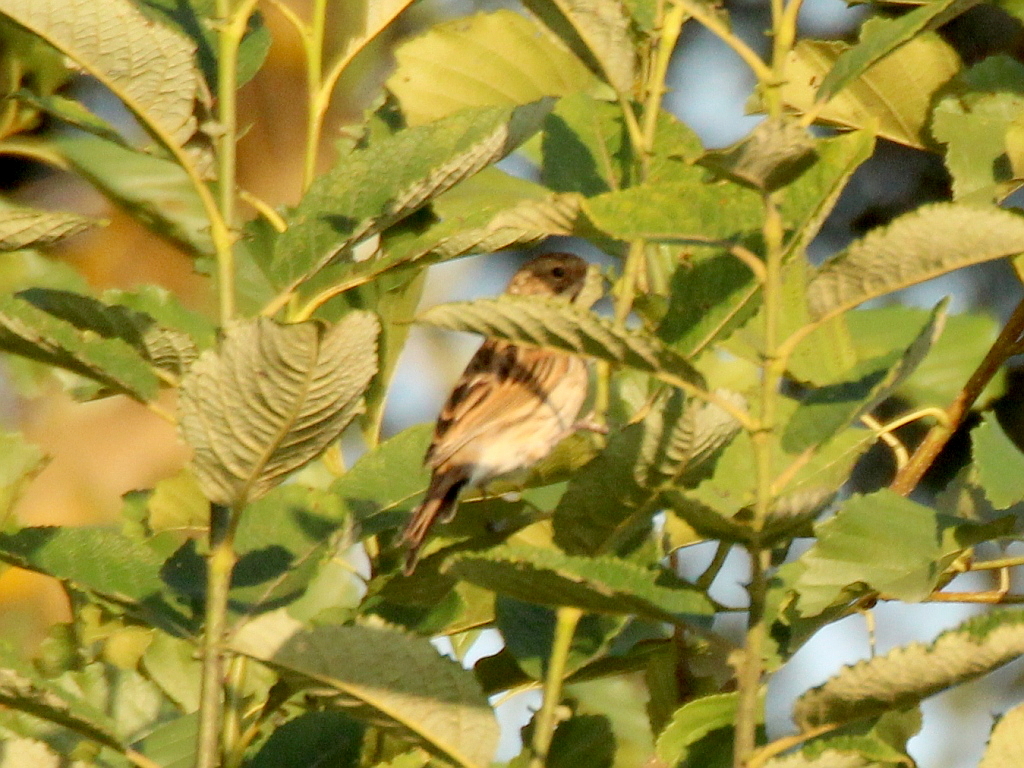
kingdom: Animalia
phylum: Chordata
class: Aves
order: Passeriformes
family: Emberizidae
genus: Emberiza
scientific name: Emberiza schoeniclus
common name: Reed bunting
